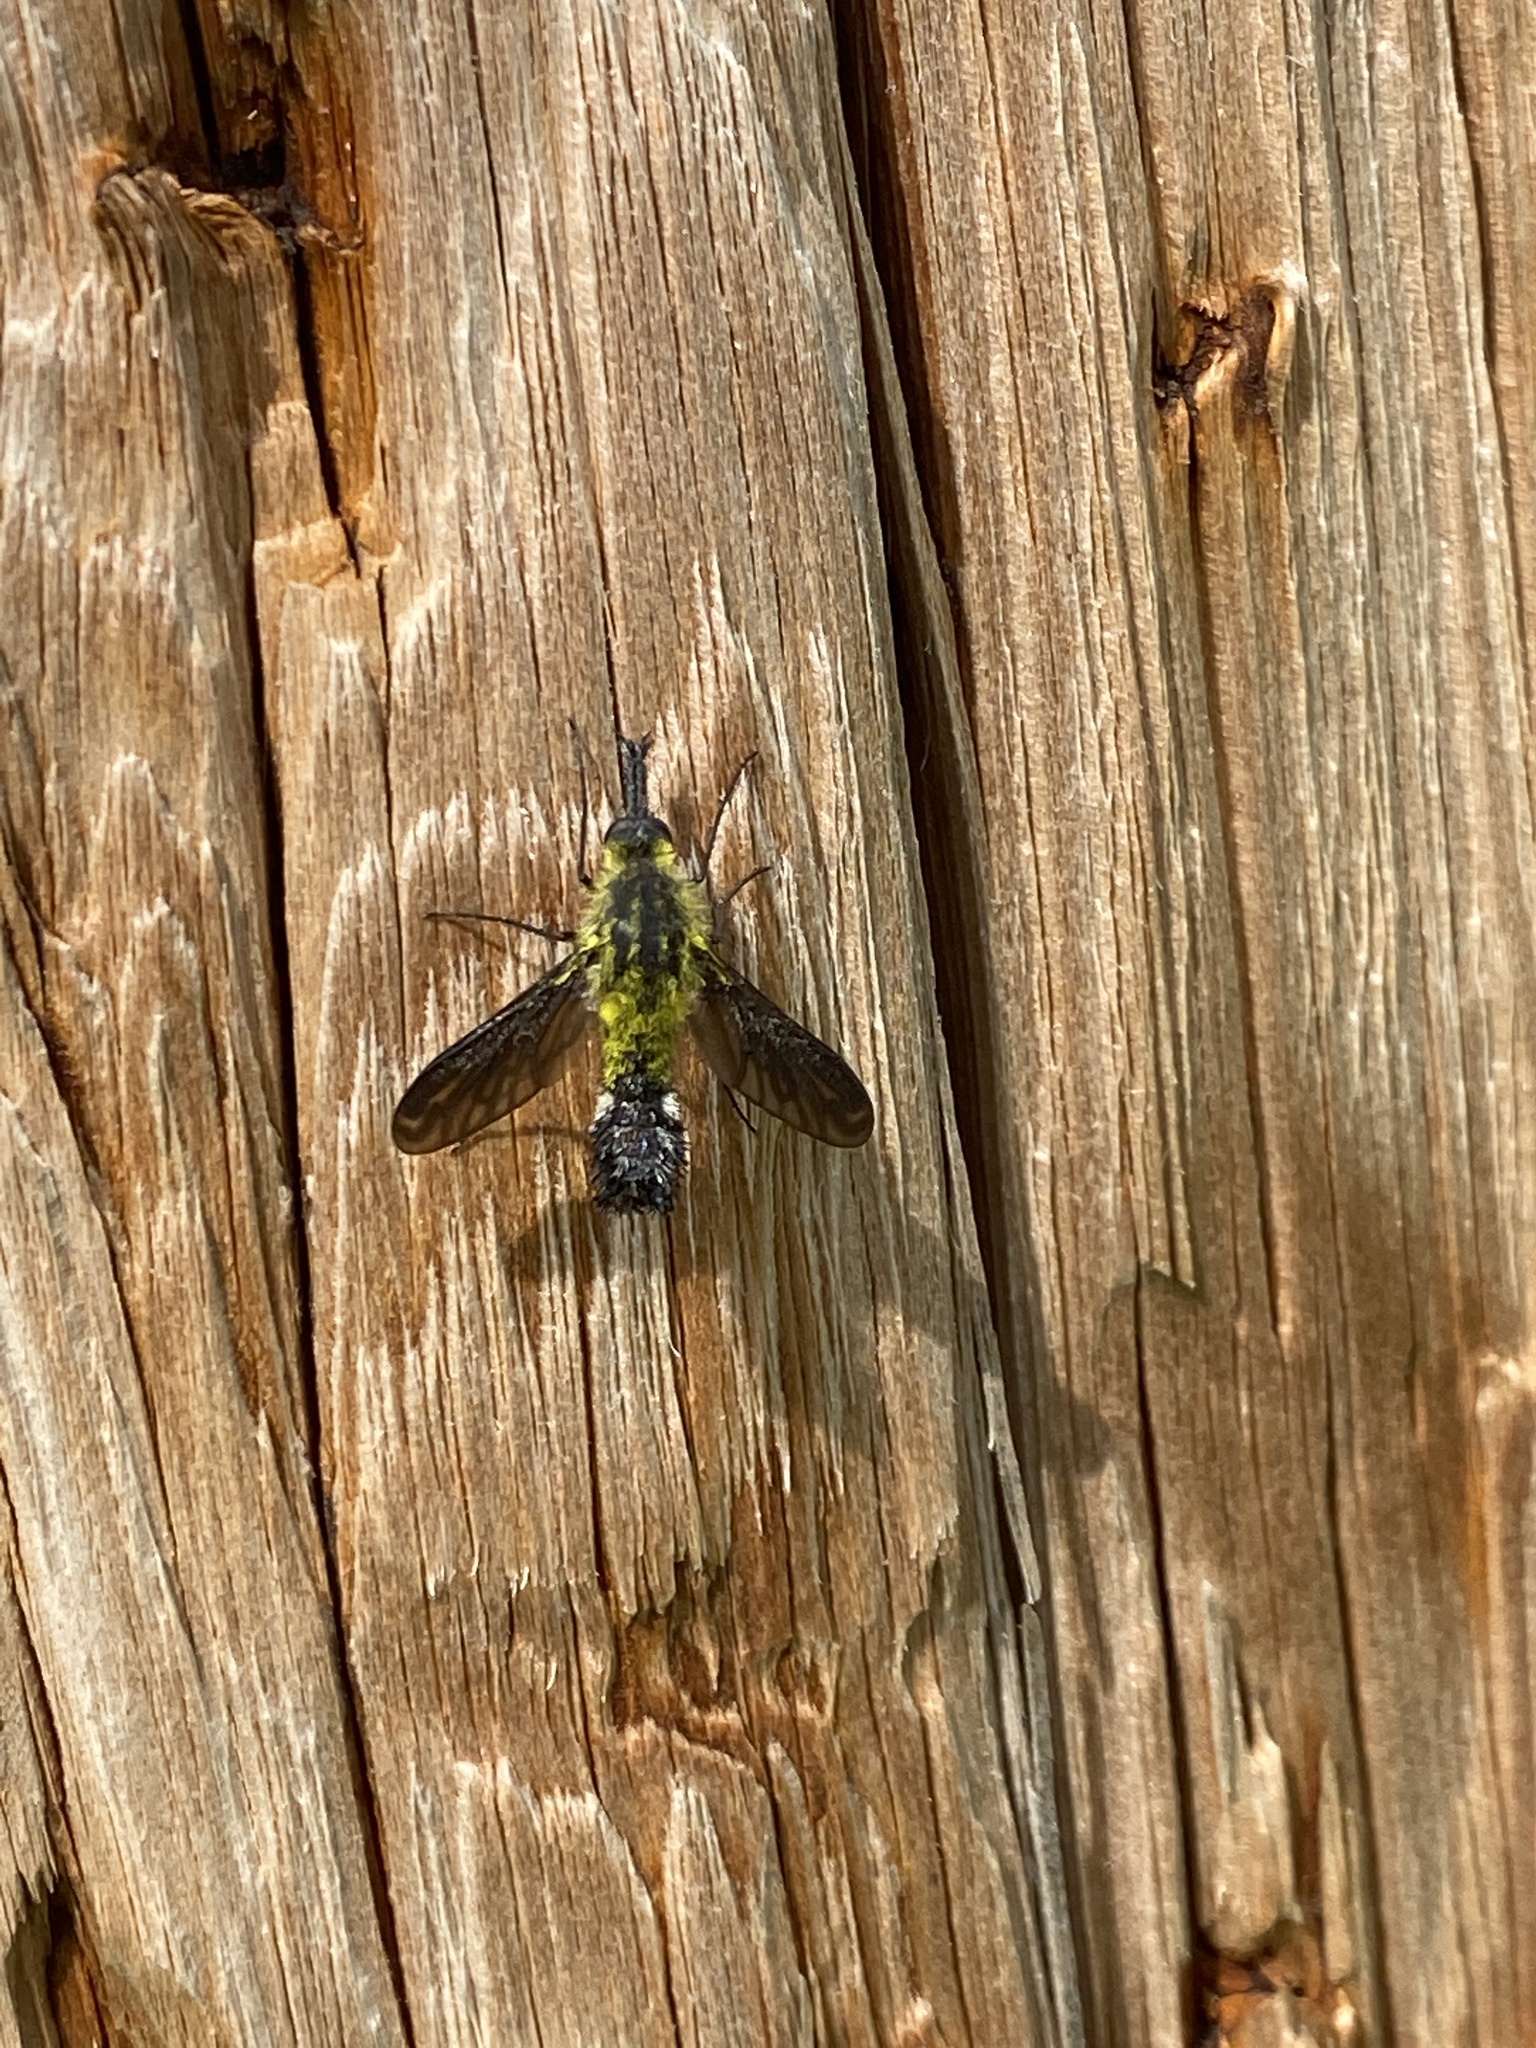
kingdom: Animalia
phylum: Arthropoda
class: Insecta
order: Diptera
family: Bombyliidae
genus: Lepidophora
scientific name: Lepidophora lutea
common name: Hunchback bee fly
